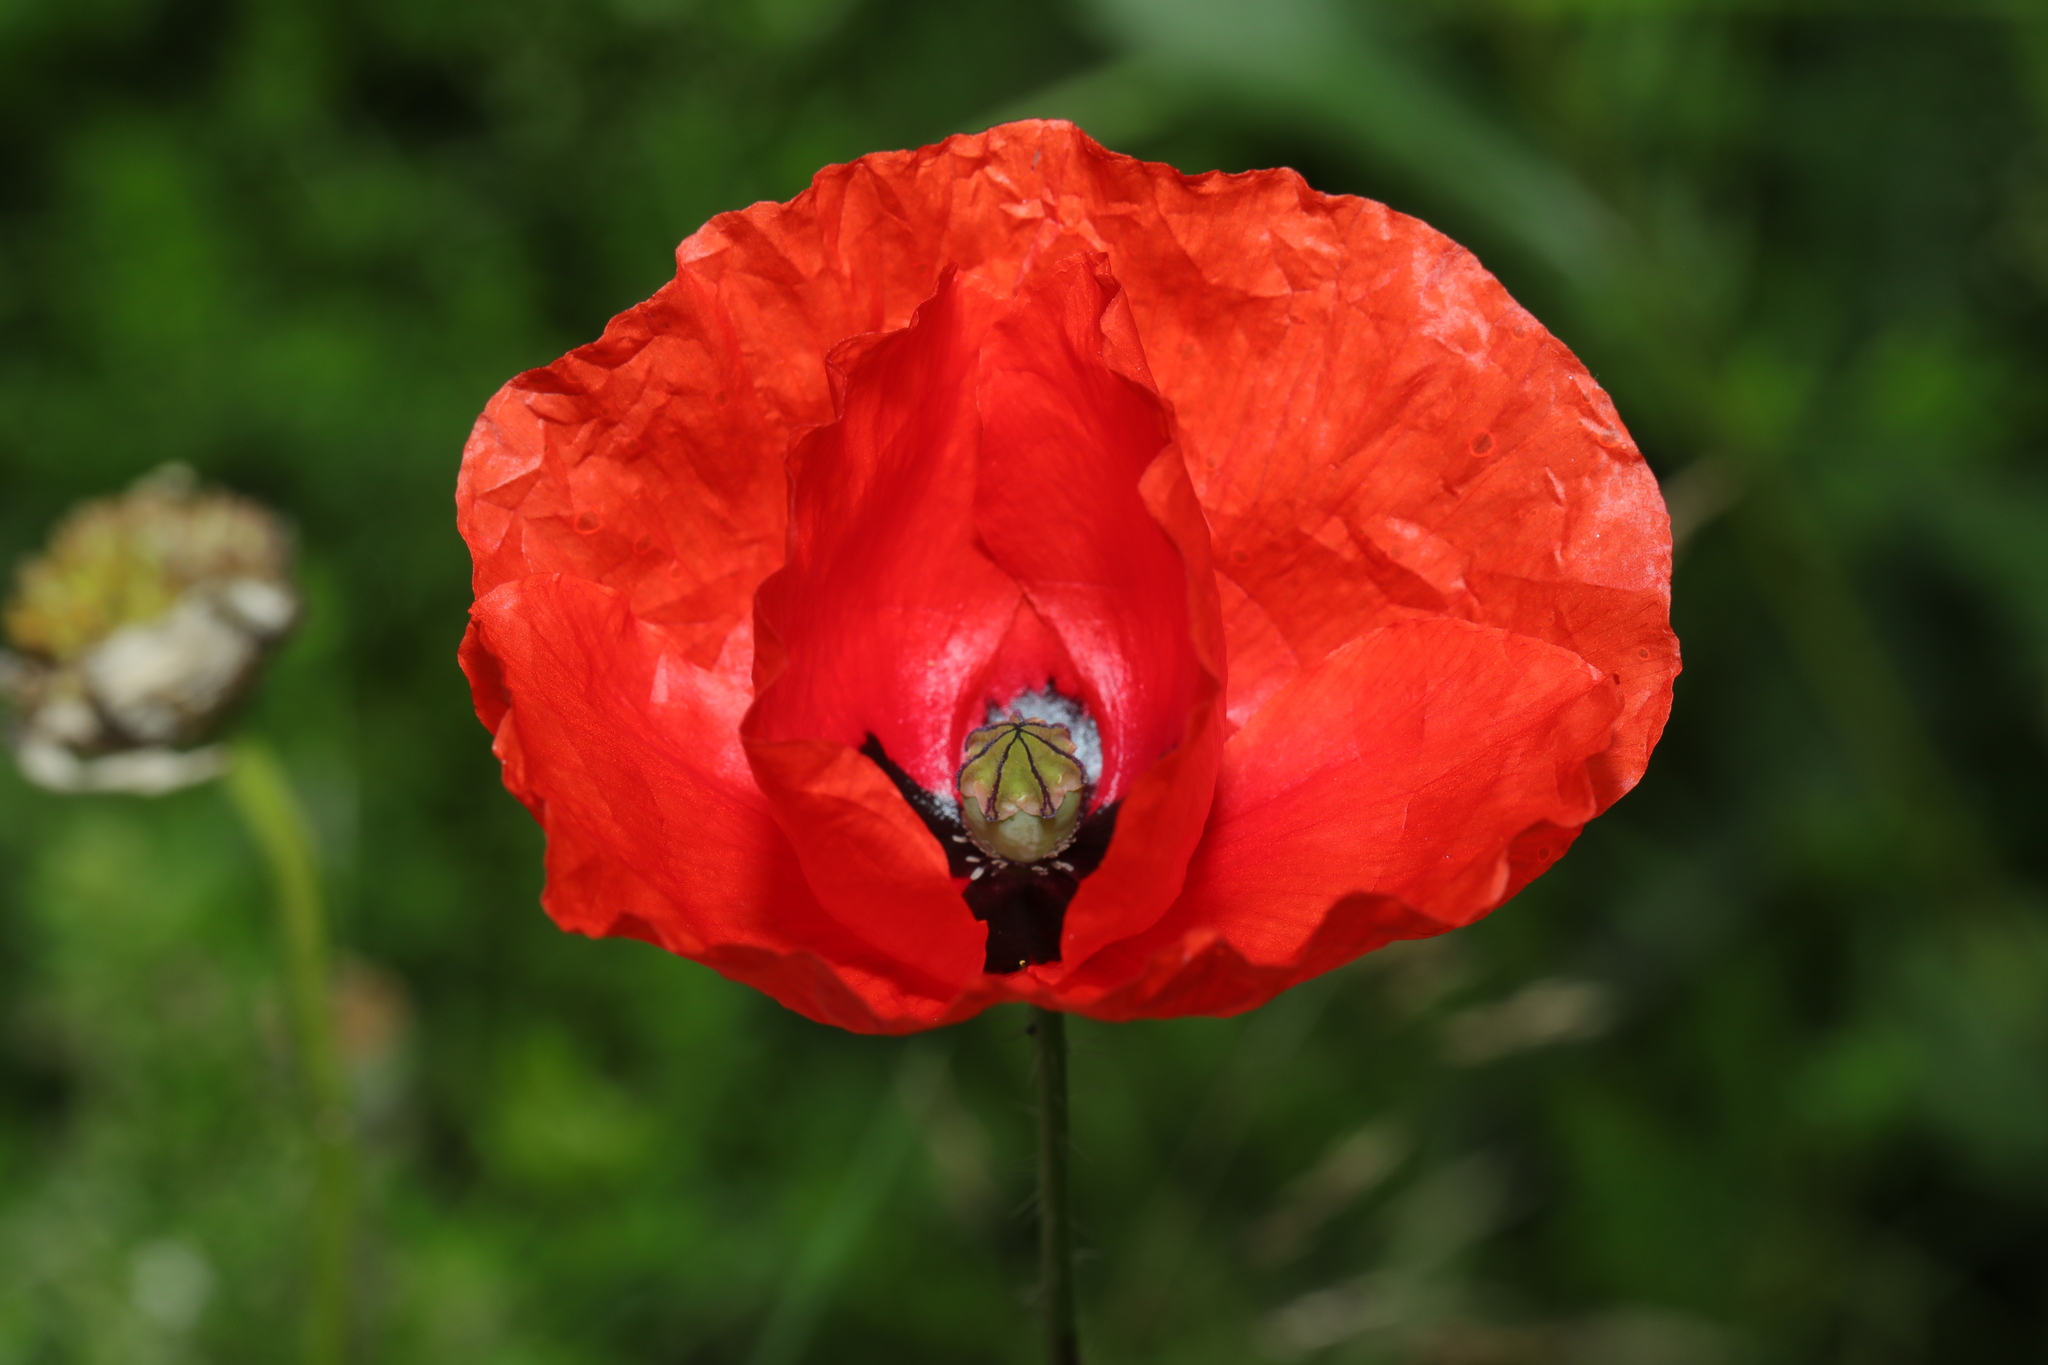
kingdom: Plantae
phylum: Tracheophyta
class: Magnoliopsida
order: Ranunculales
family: Papaveraceae
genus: Papaver
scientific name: Papaver rhoeas
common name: Corn poppy
